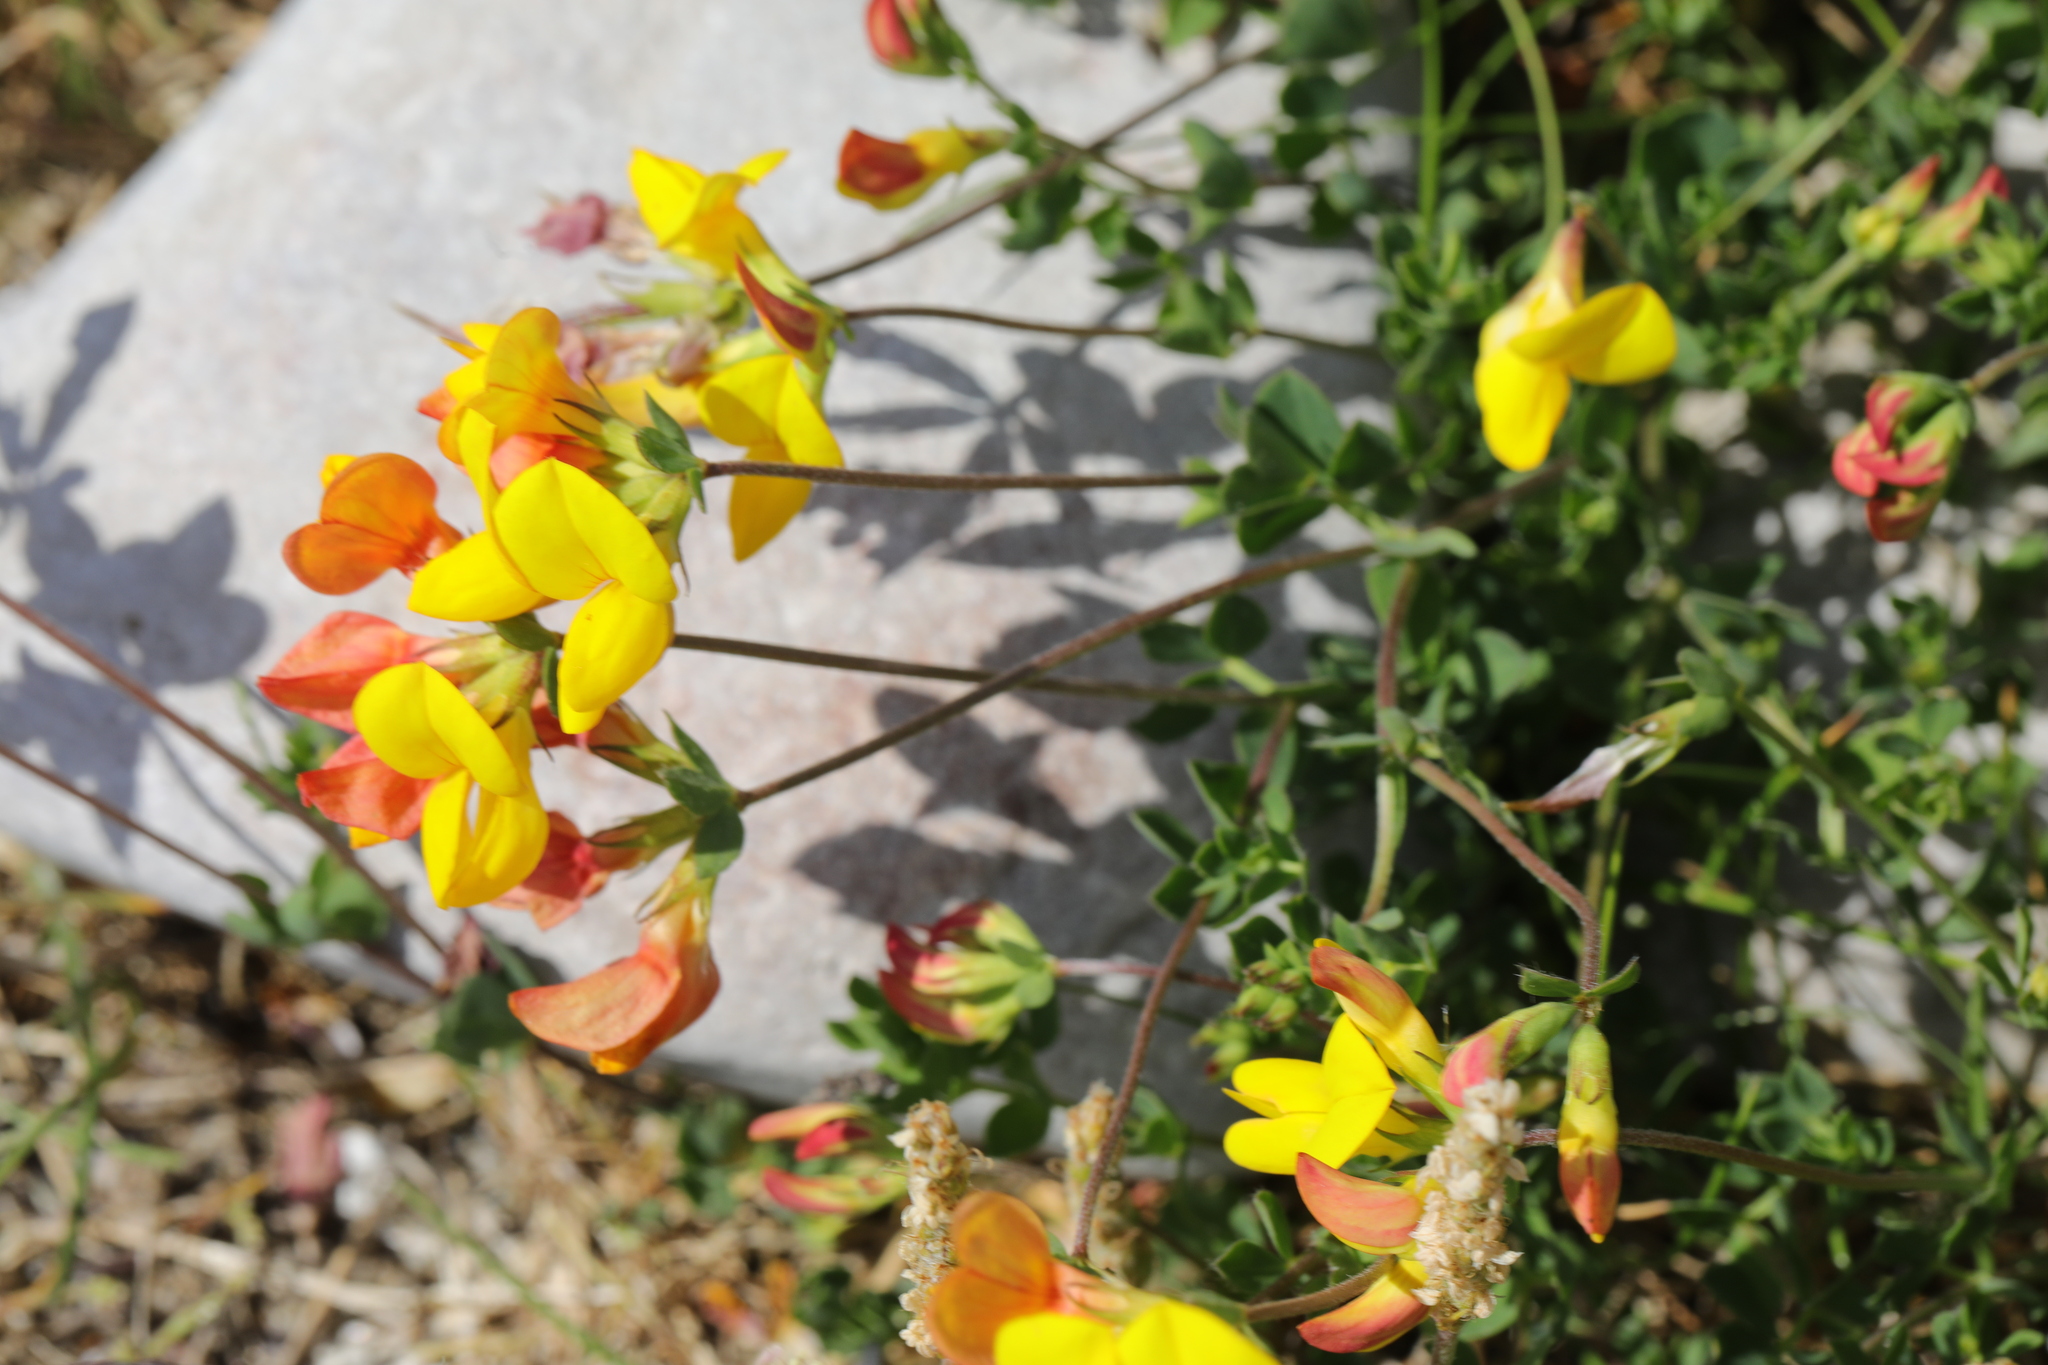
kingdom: Plantae
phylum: Tracheophyta
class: Magnoliopsida
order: Fabales
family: Fabaceae
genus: Lotus
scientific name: Lotus corniculatus
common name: Common bird's-foot-trefoil
